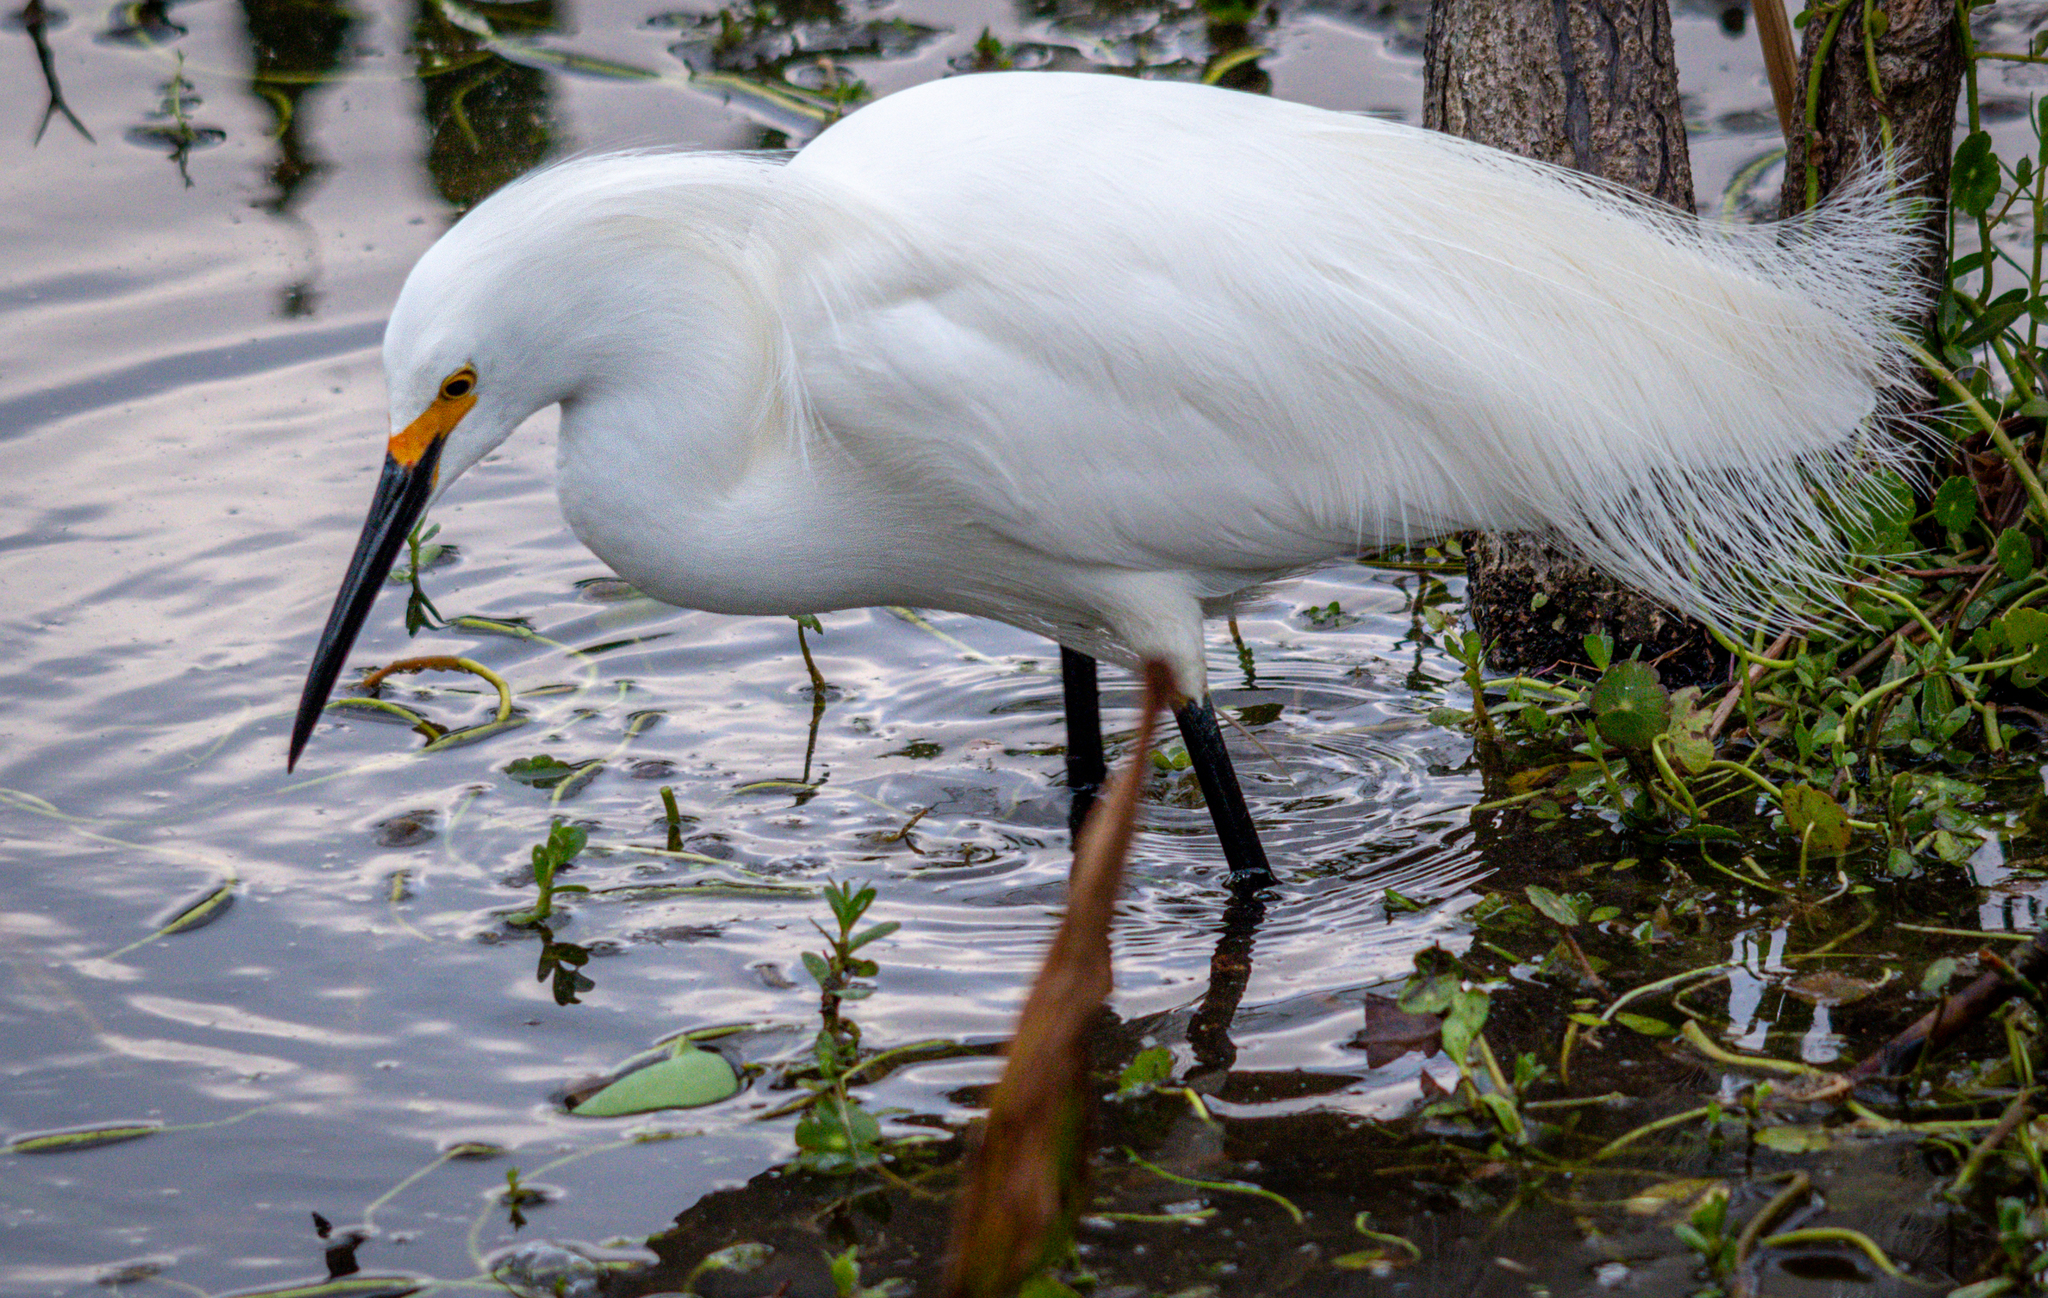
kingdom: Animalia
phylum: Chordata
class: Aves
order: Pelecaniformes
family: Ardeidae
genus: Egretta
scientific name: Egretta thula
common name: Snowy egret
